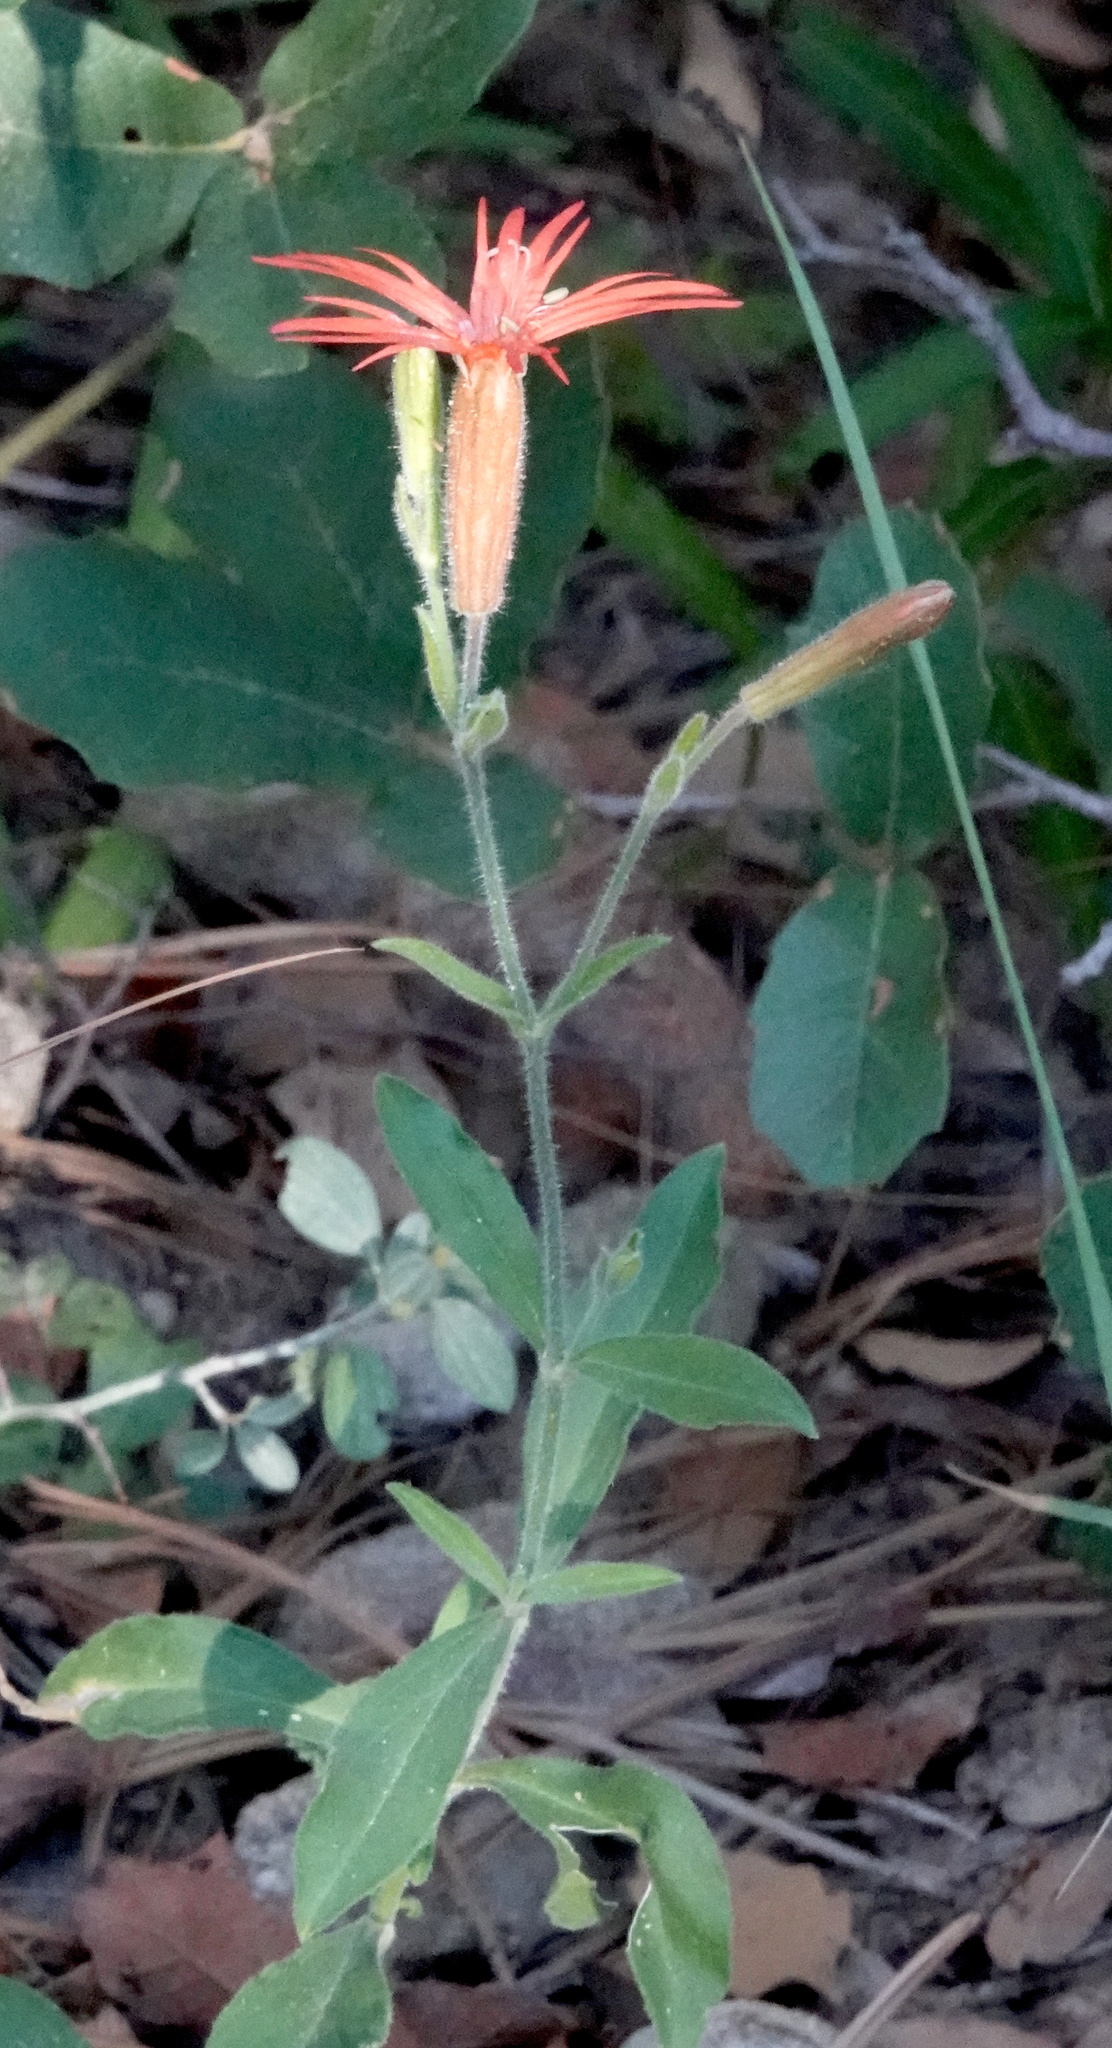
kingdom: Plantae
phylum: Tracheophyta
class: Magnoliopsida
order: Caryophyllales
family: Caryophyllaceae
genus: Silene
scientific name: Silene laciniata
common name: Indian-pink
